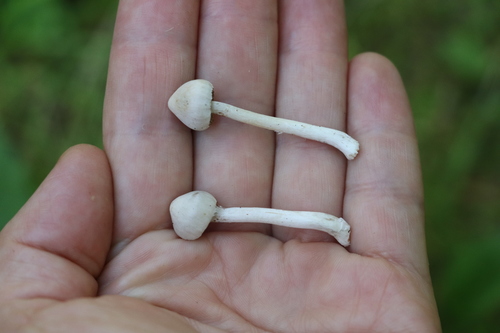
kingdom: Fungi
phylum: Basidiomycota
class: Agaricomycetes
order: Agaricales
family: Inocybaceae
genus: Inocybe
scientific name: Inocybe geophylla
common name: White fibrecap
